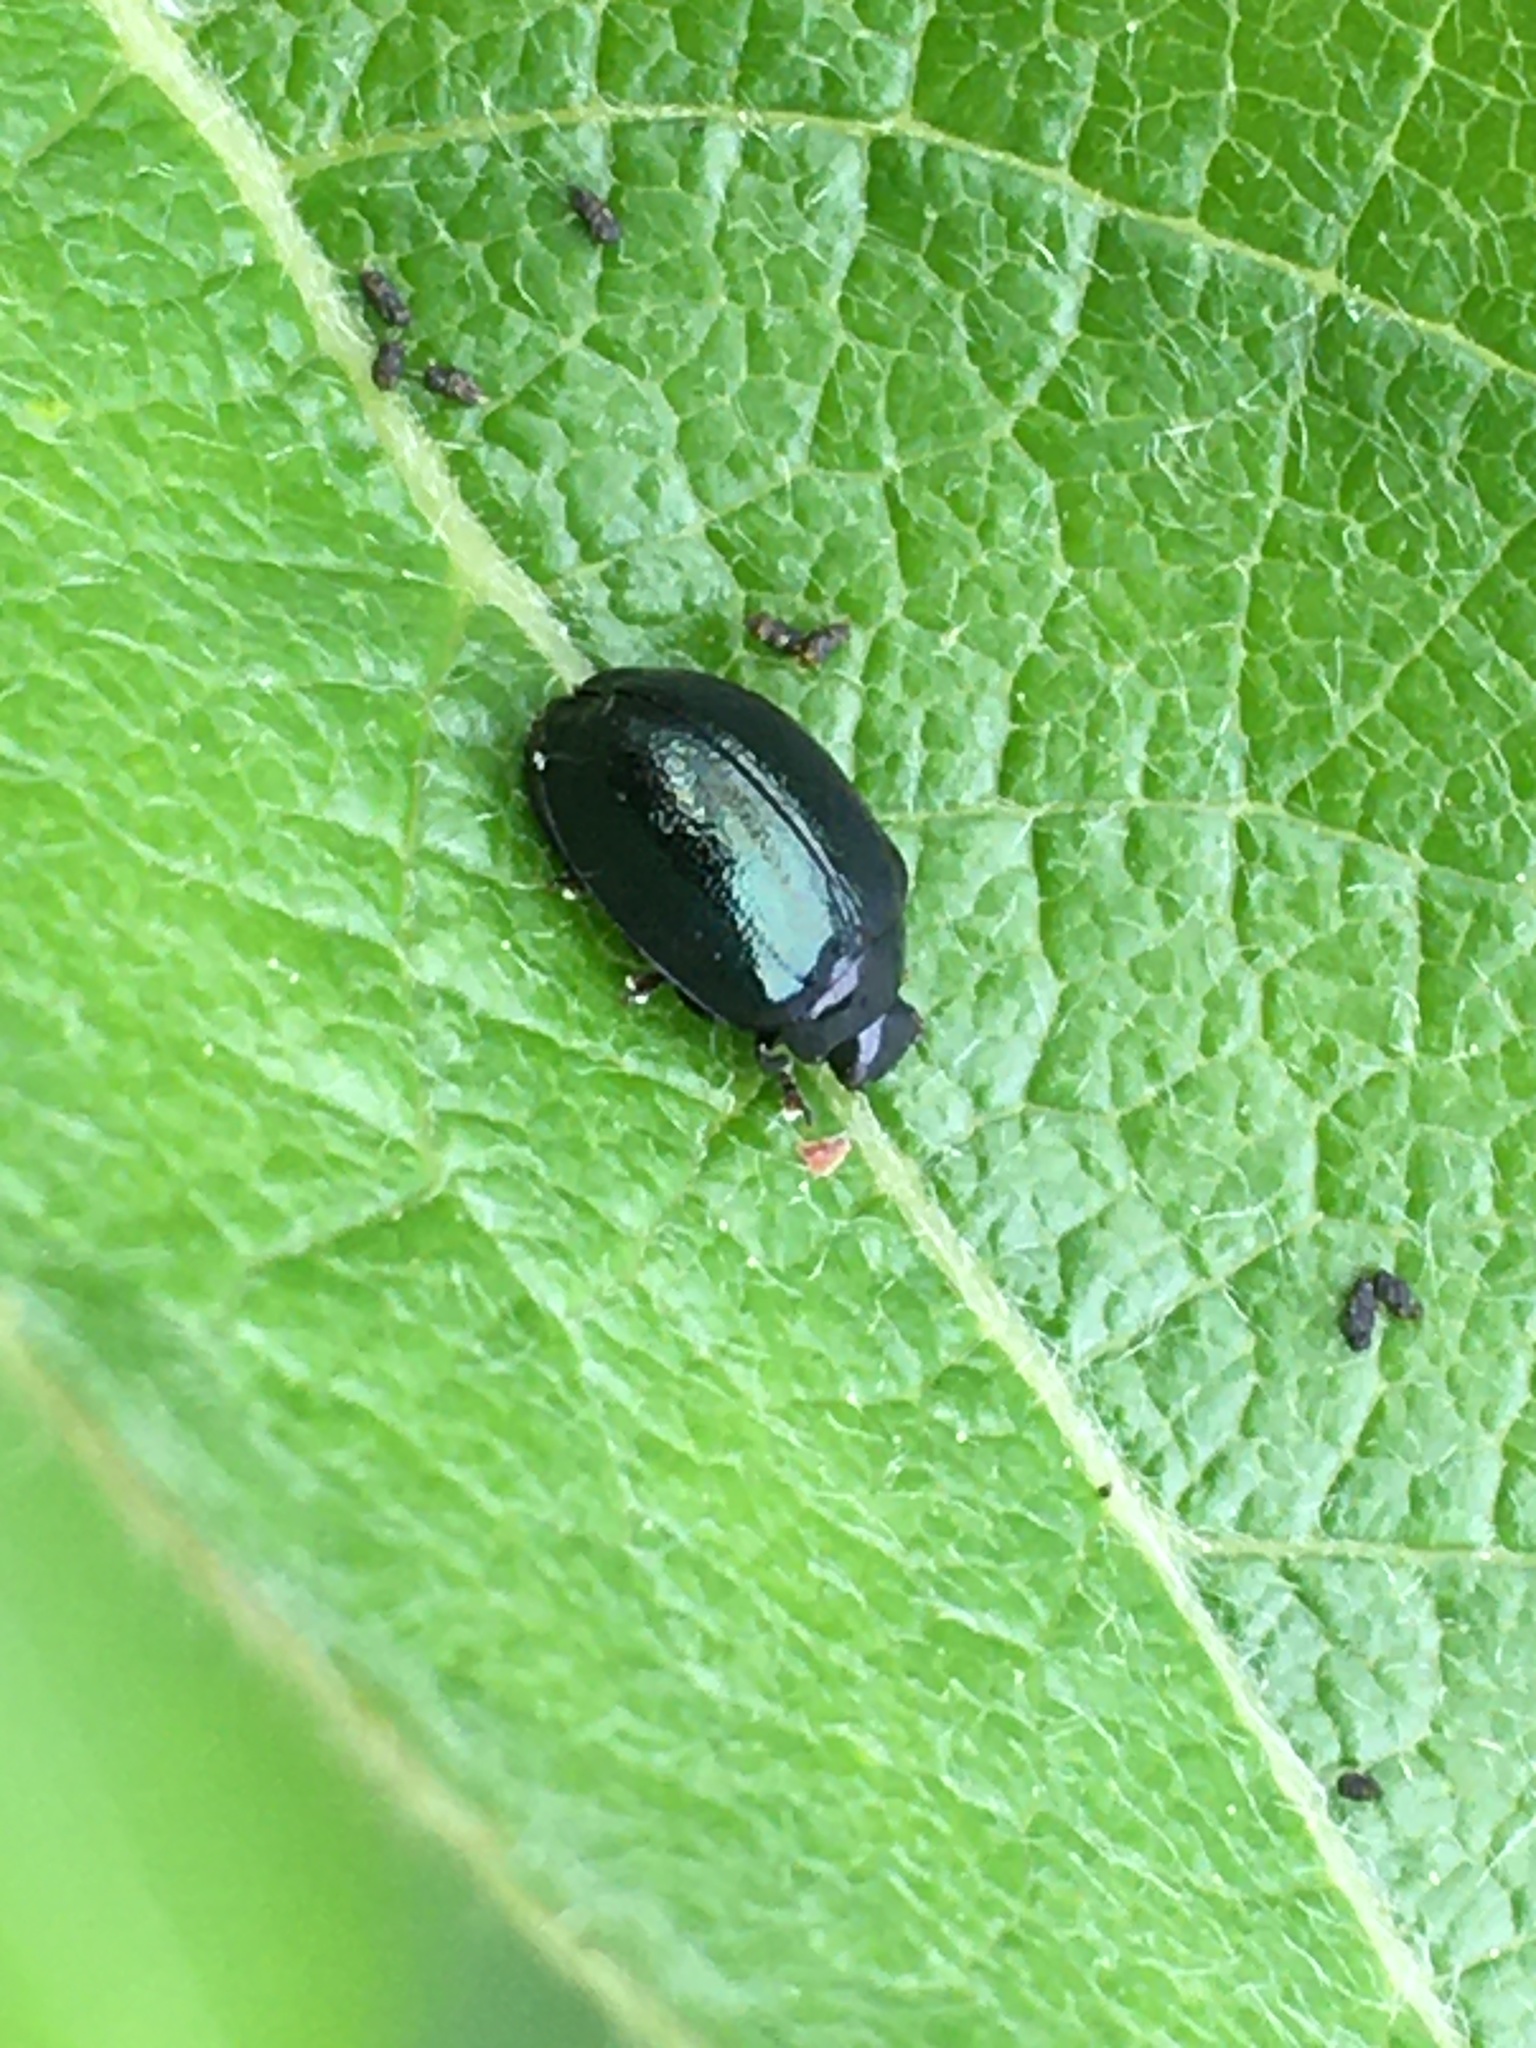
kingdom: Animalia
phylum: Arthropoda
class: Insecta
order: Coleoptera
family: Chrysomelidae
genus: Plagiodera
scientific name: Plagiodera versicolora
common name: Imported willow leaf beetle
